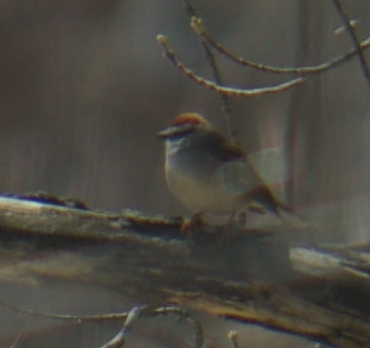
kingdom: Animalia
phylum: Chordata
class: Aves
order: Passeriformes
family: Passerellidae
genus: Spizella
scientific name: Spizella passerina
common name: Chipping sparrow
